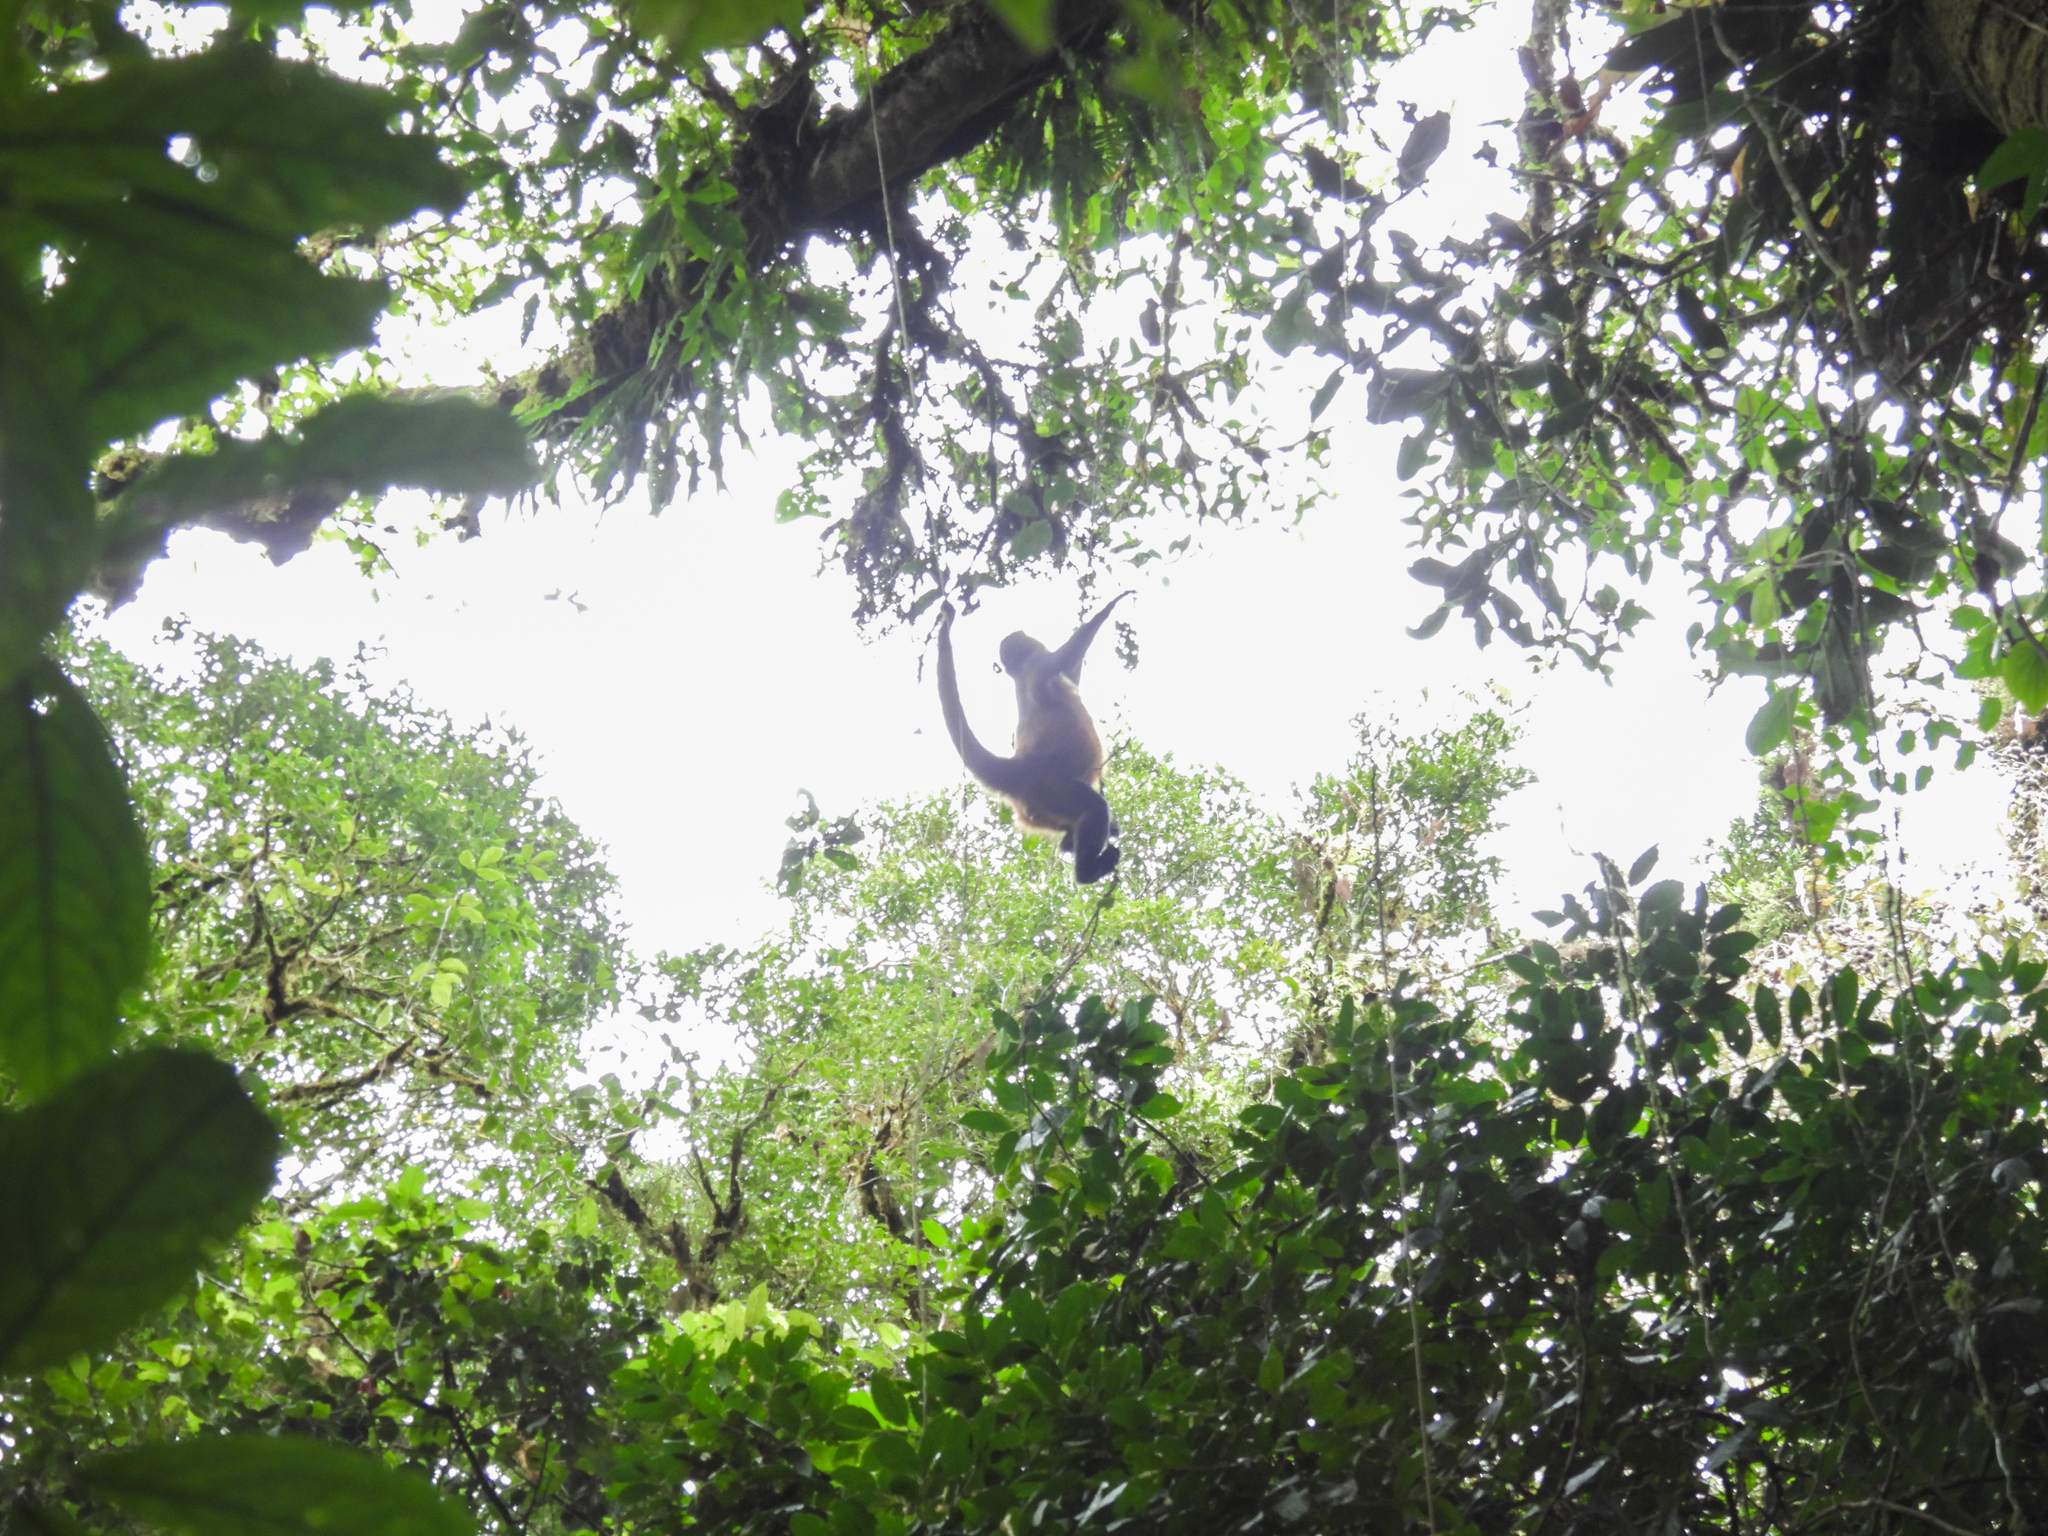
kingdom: Animalia
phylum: Chordata
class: Mammalia
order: Primates
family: Atelidae
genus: Ateles
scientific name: Ateles geoffroyi
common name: Black-handed spider monkey
